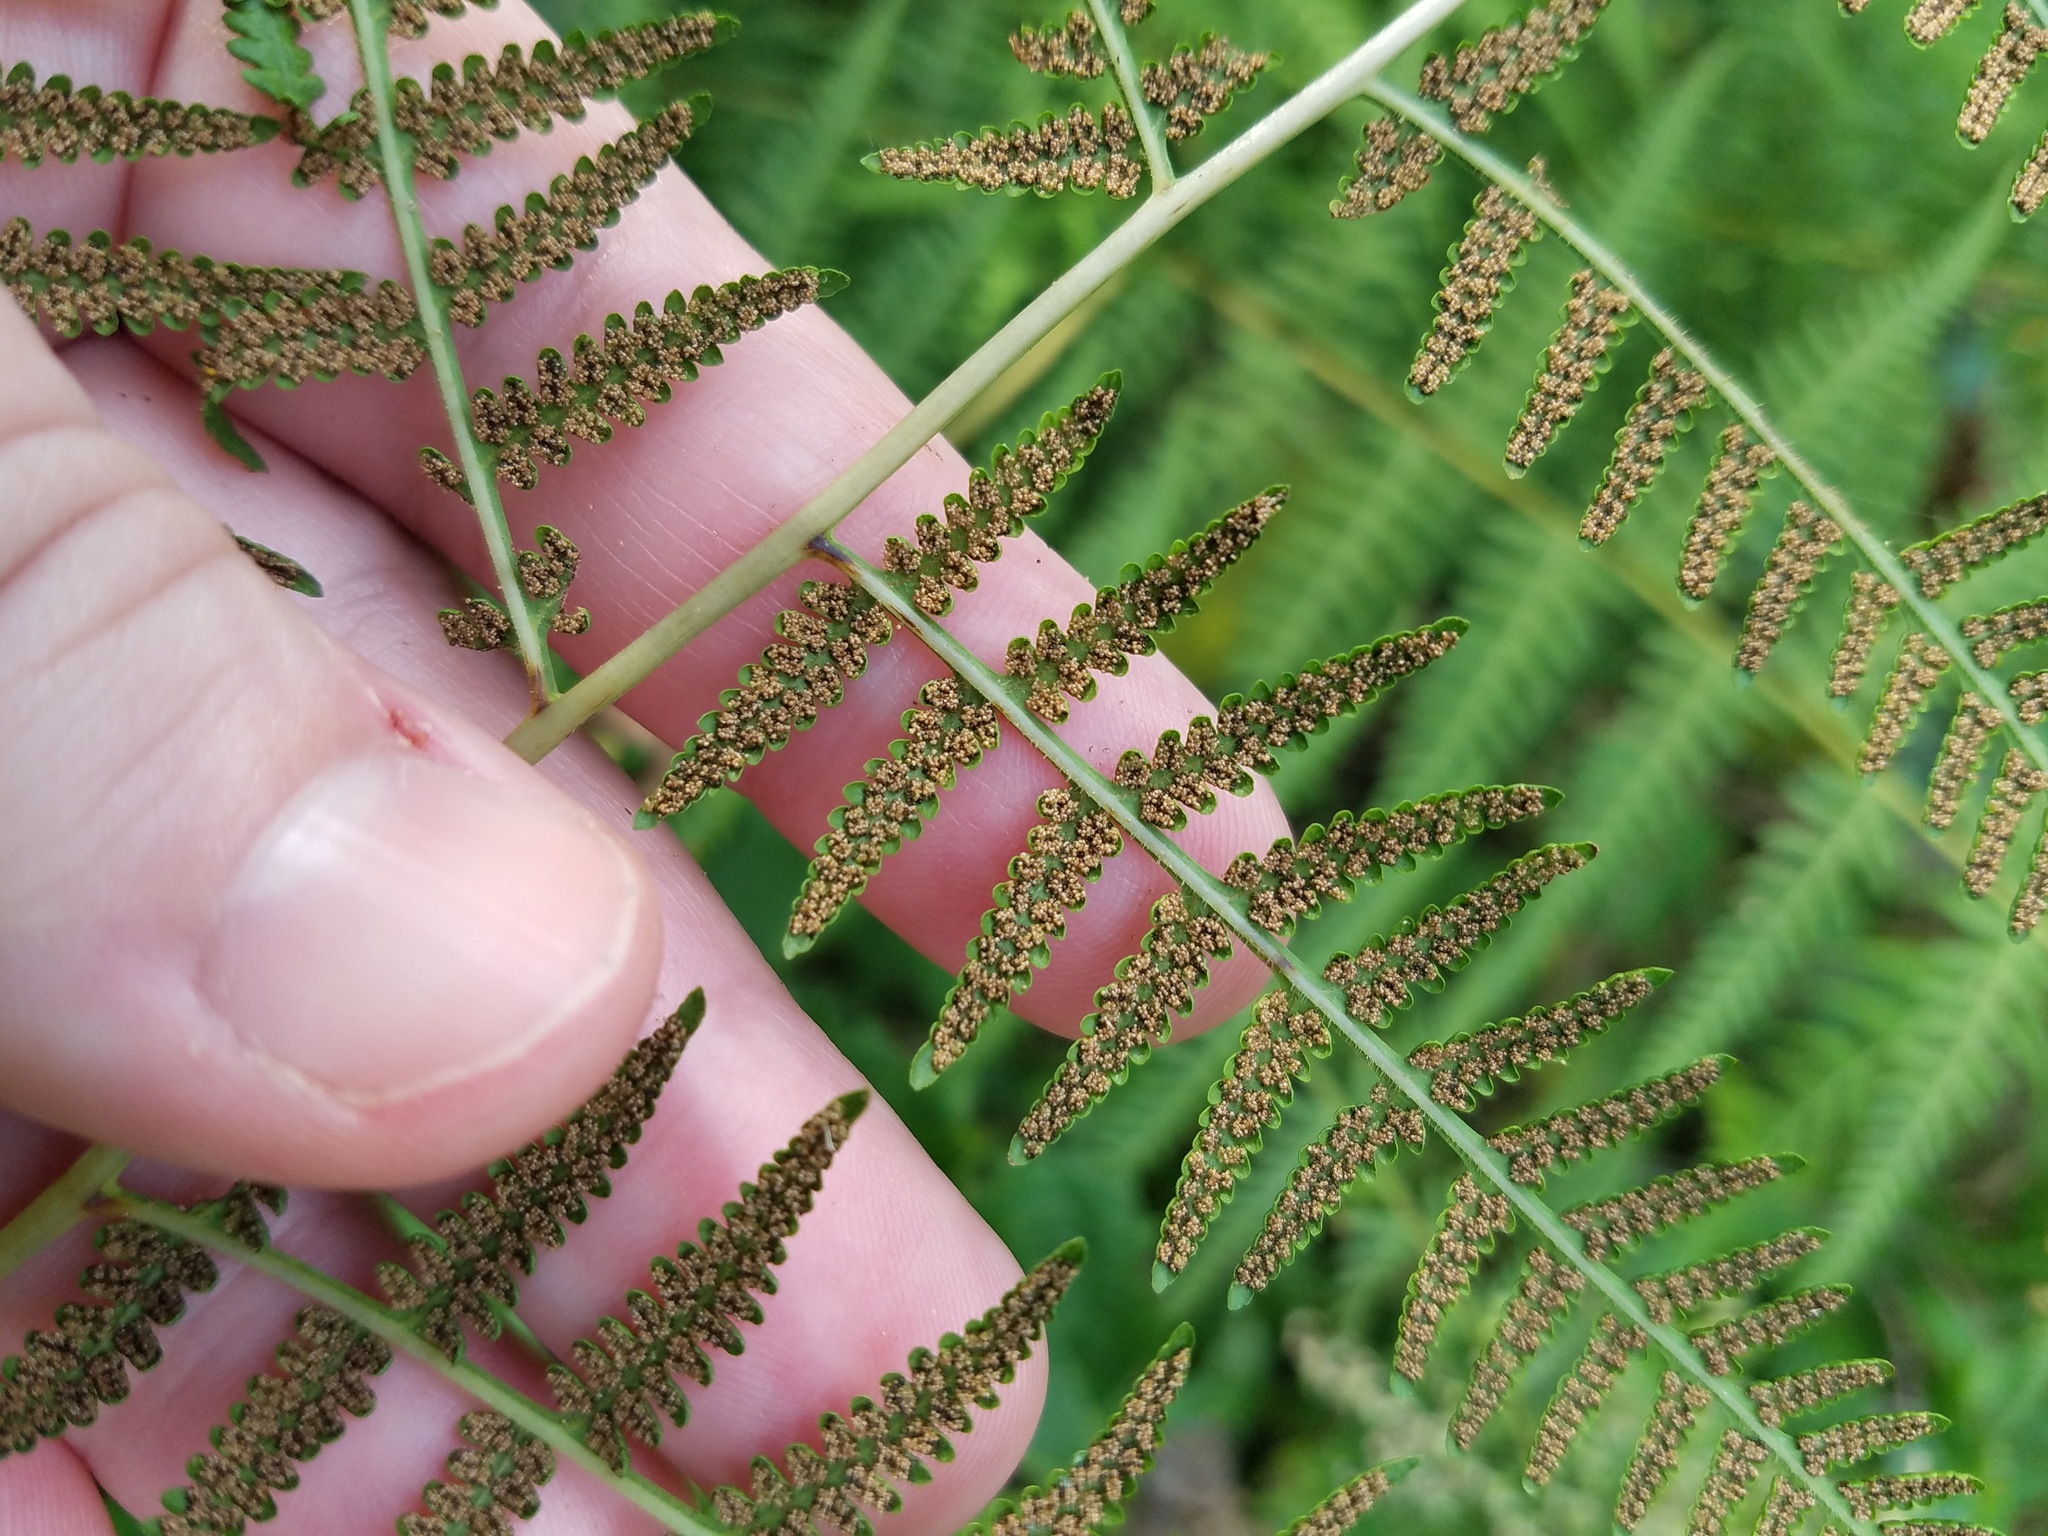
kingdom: Plantae
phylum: Tracheophyta
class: Polypodiopsida
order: Polypodiales
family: Thelypteridaceae
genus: Macrothelypteris
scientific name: Macrothelypteris torresiana
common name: Swordfern
